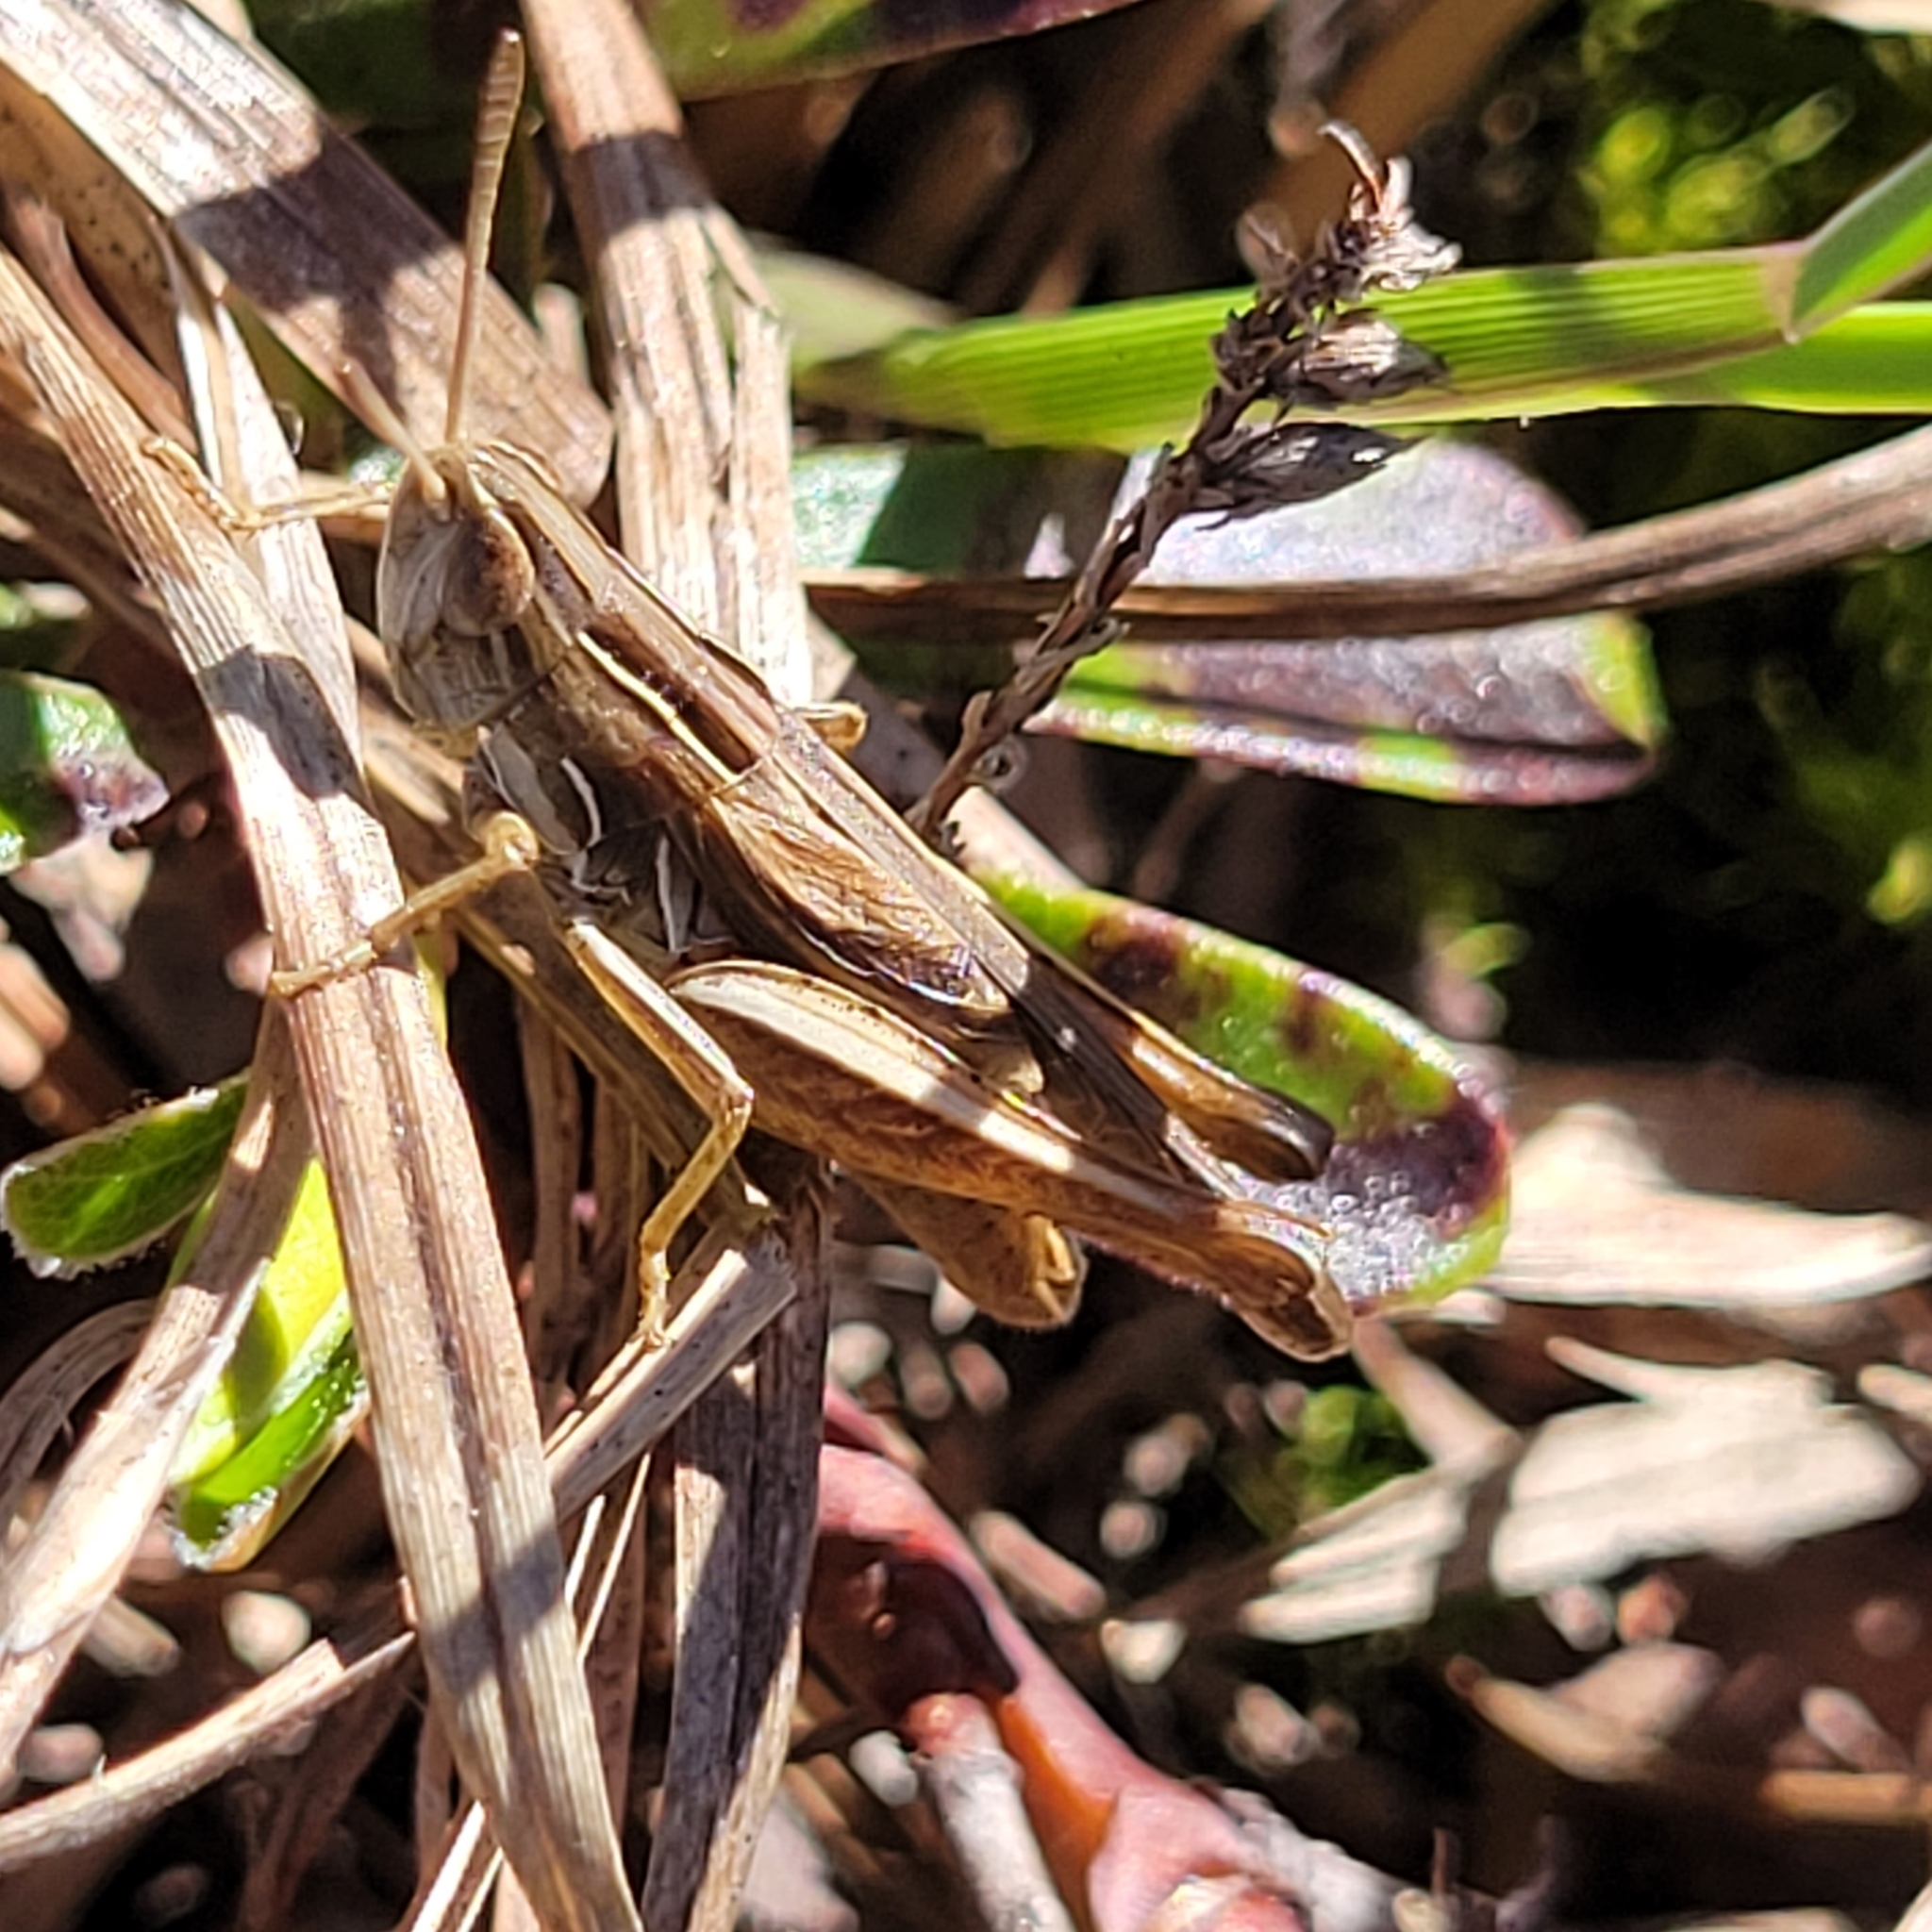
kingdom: Animalia
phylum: Arthropoda
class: Insecta
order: Orthoptera
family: Acrididae
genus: Eritettix
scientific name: Eritettix simplex
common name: Velvet-striped grasshopper
